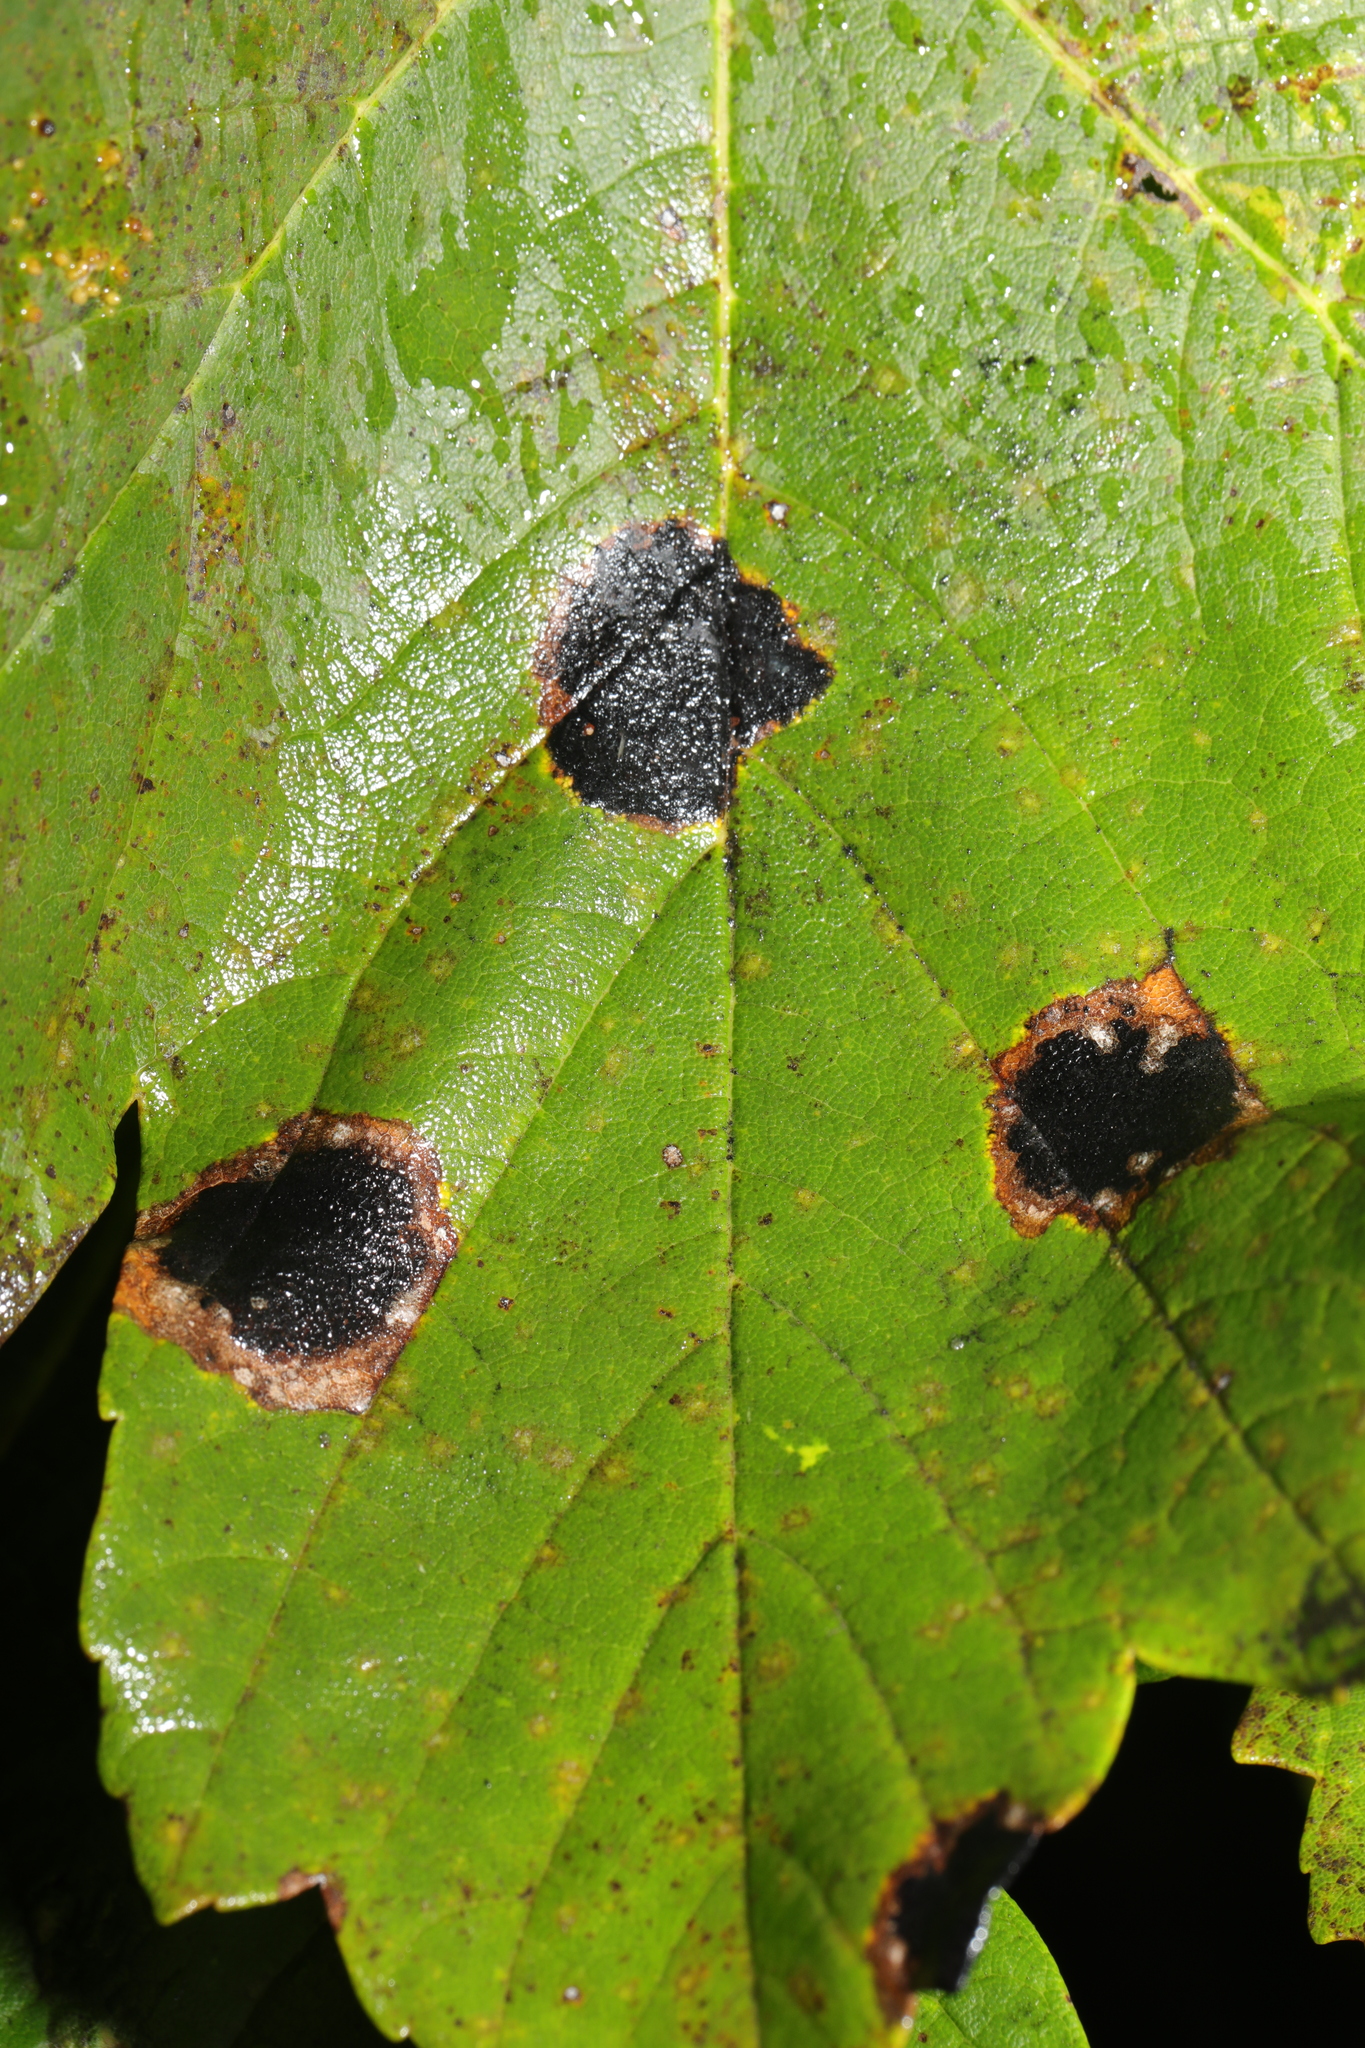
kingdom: Fungi
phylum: Ascomycota
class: Leotiomycetes
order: Rhytismatales
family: Rhytismataceae
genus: Rhytisma
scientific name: Rhytisma acerinum
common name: European tar spot
